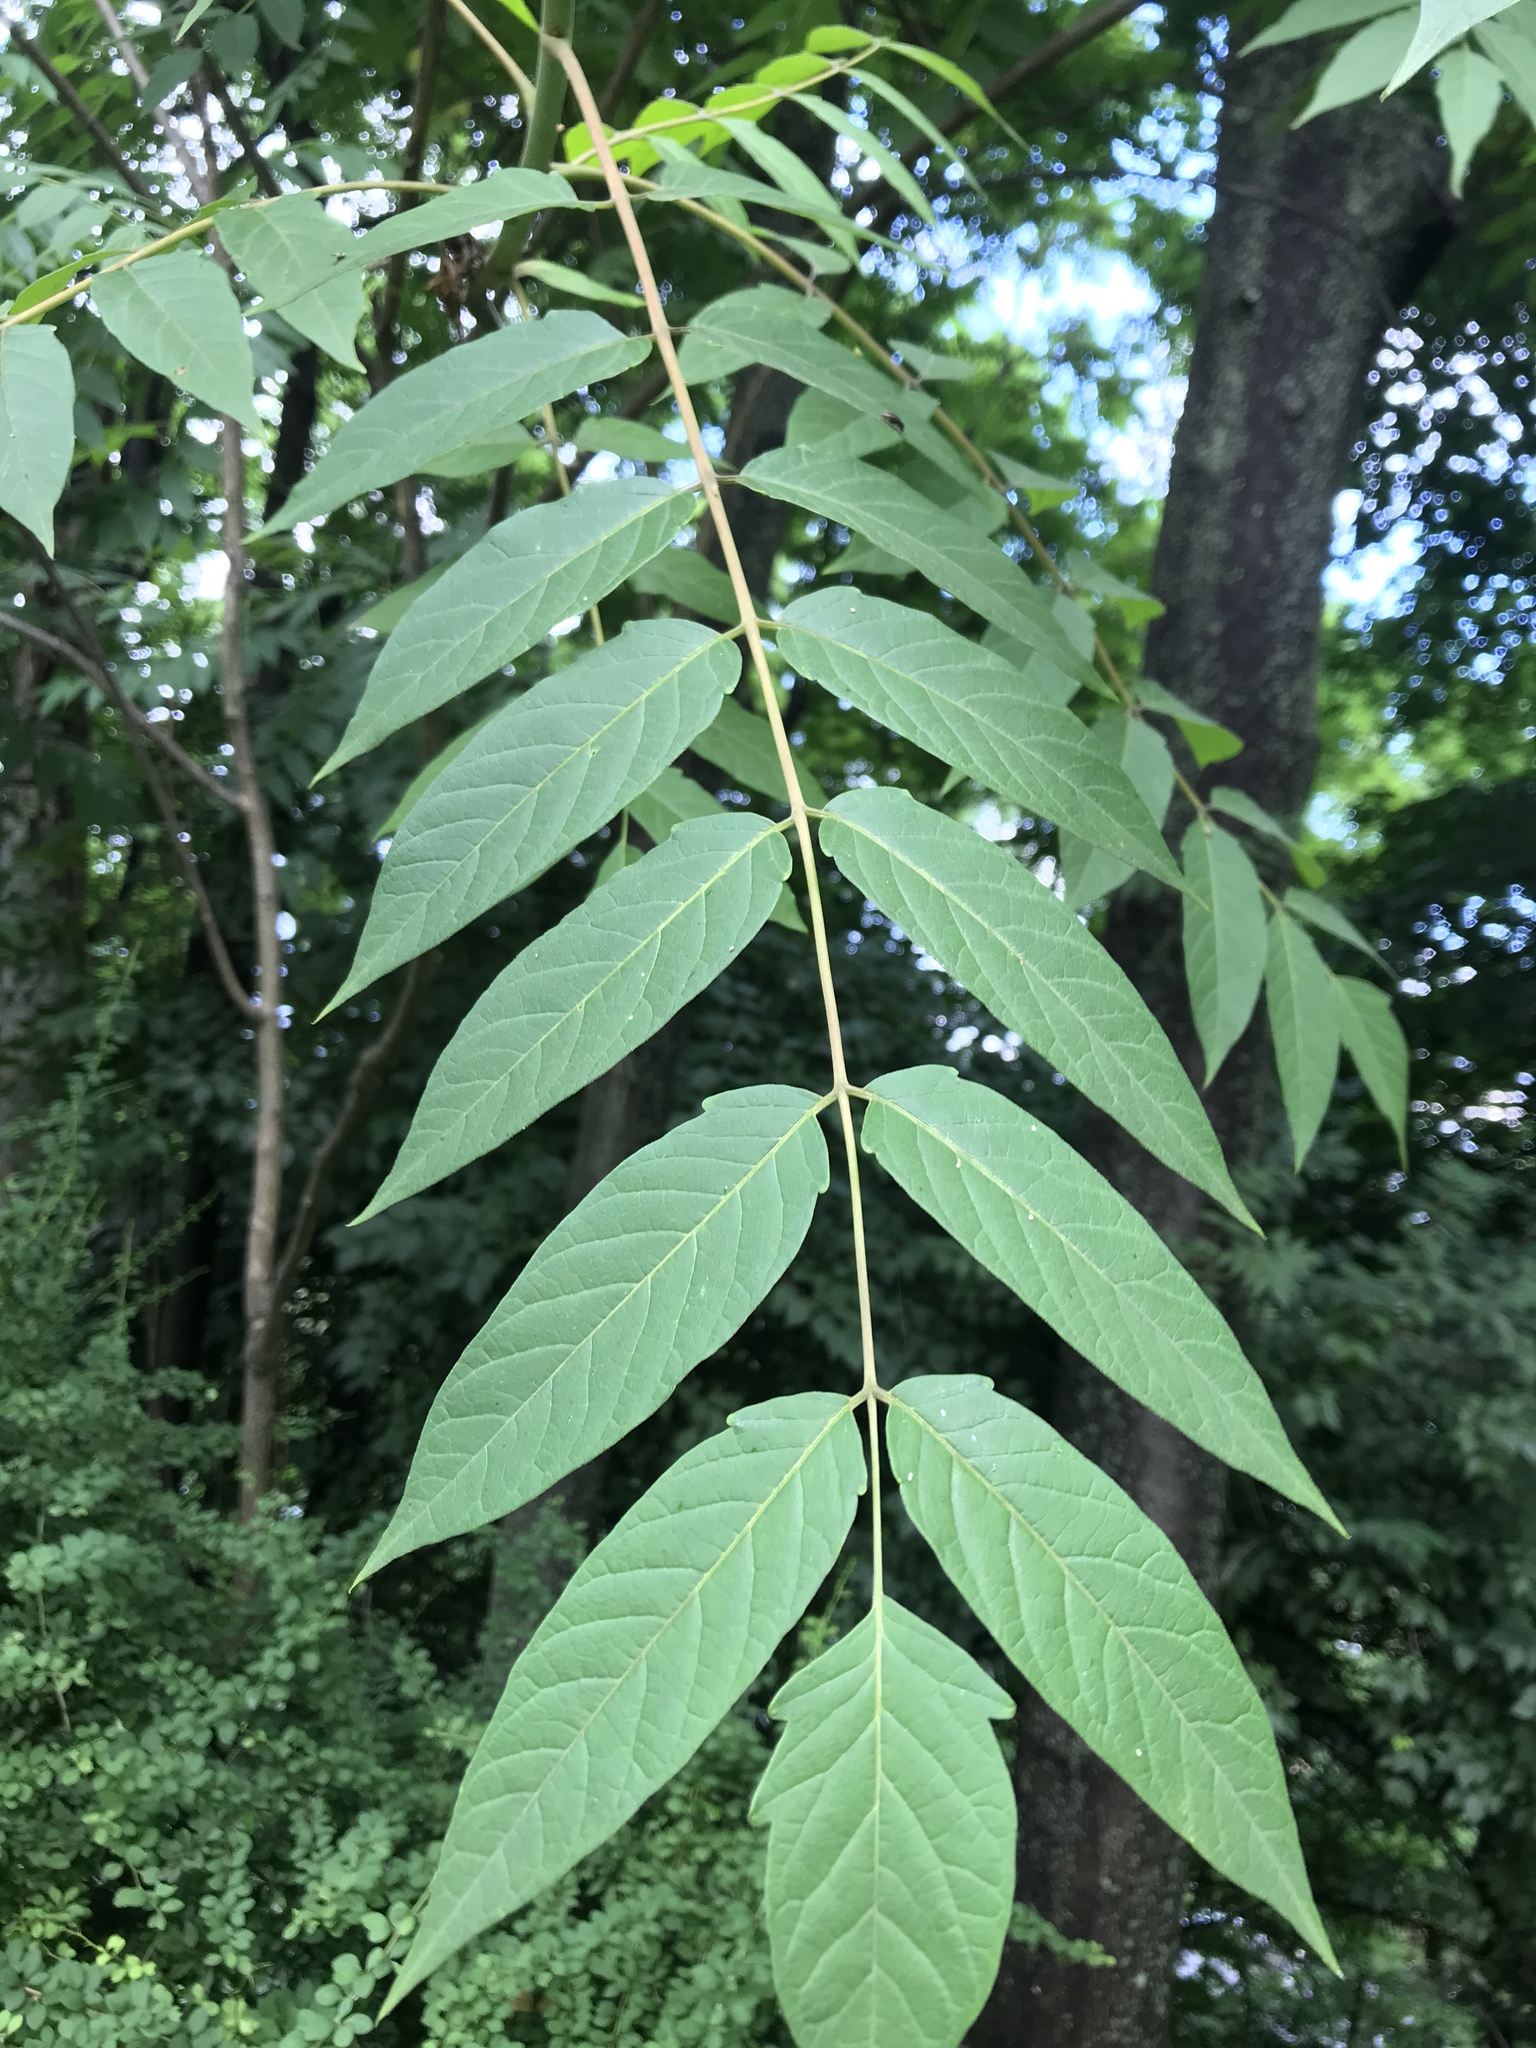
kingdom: Plantae
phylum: Tracheophyta
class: Magnoliopsida
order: Sapindales
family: Simaroubaceae
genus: Ailanthus
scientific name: Ailanthus altissima
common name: Tree-of-heaven
